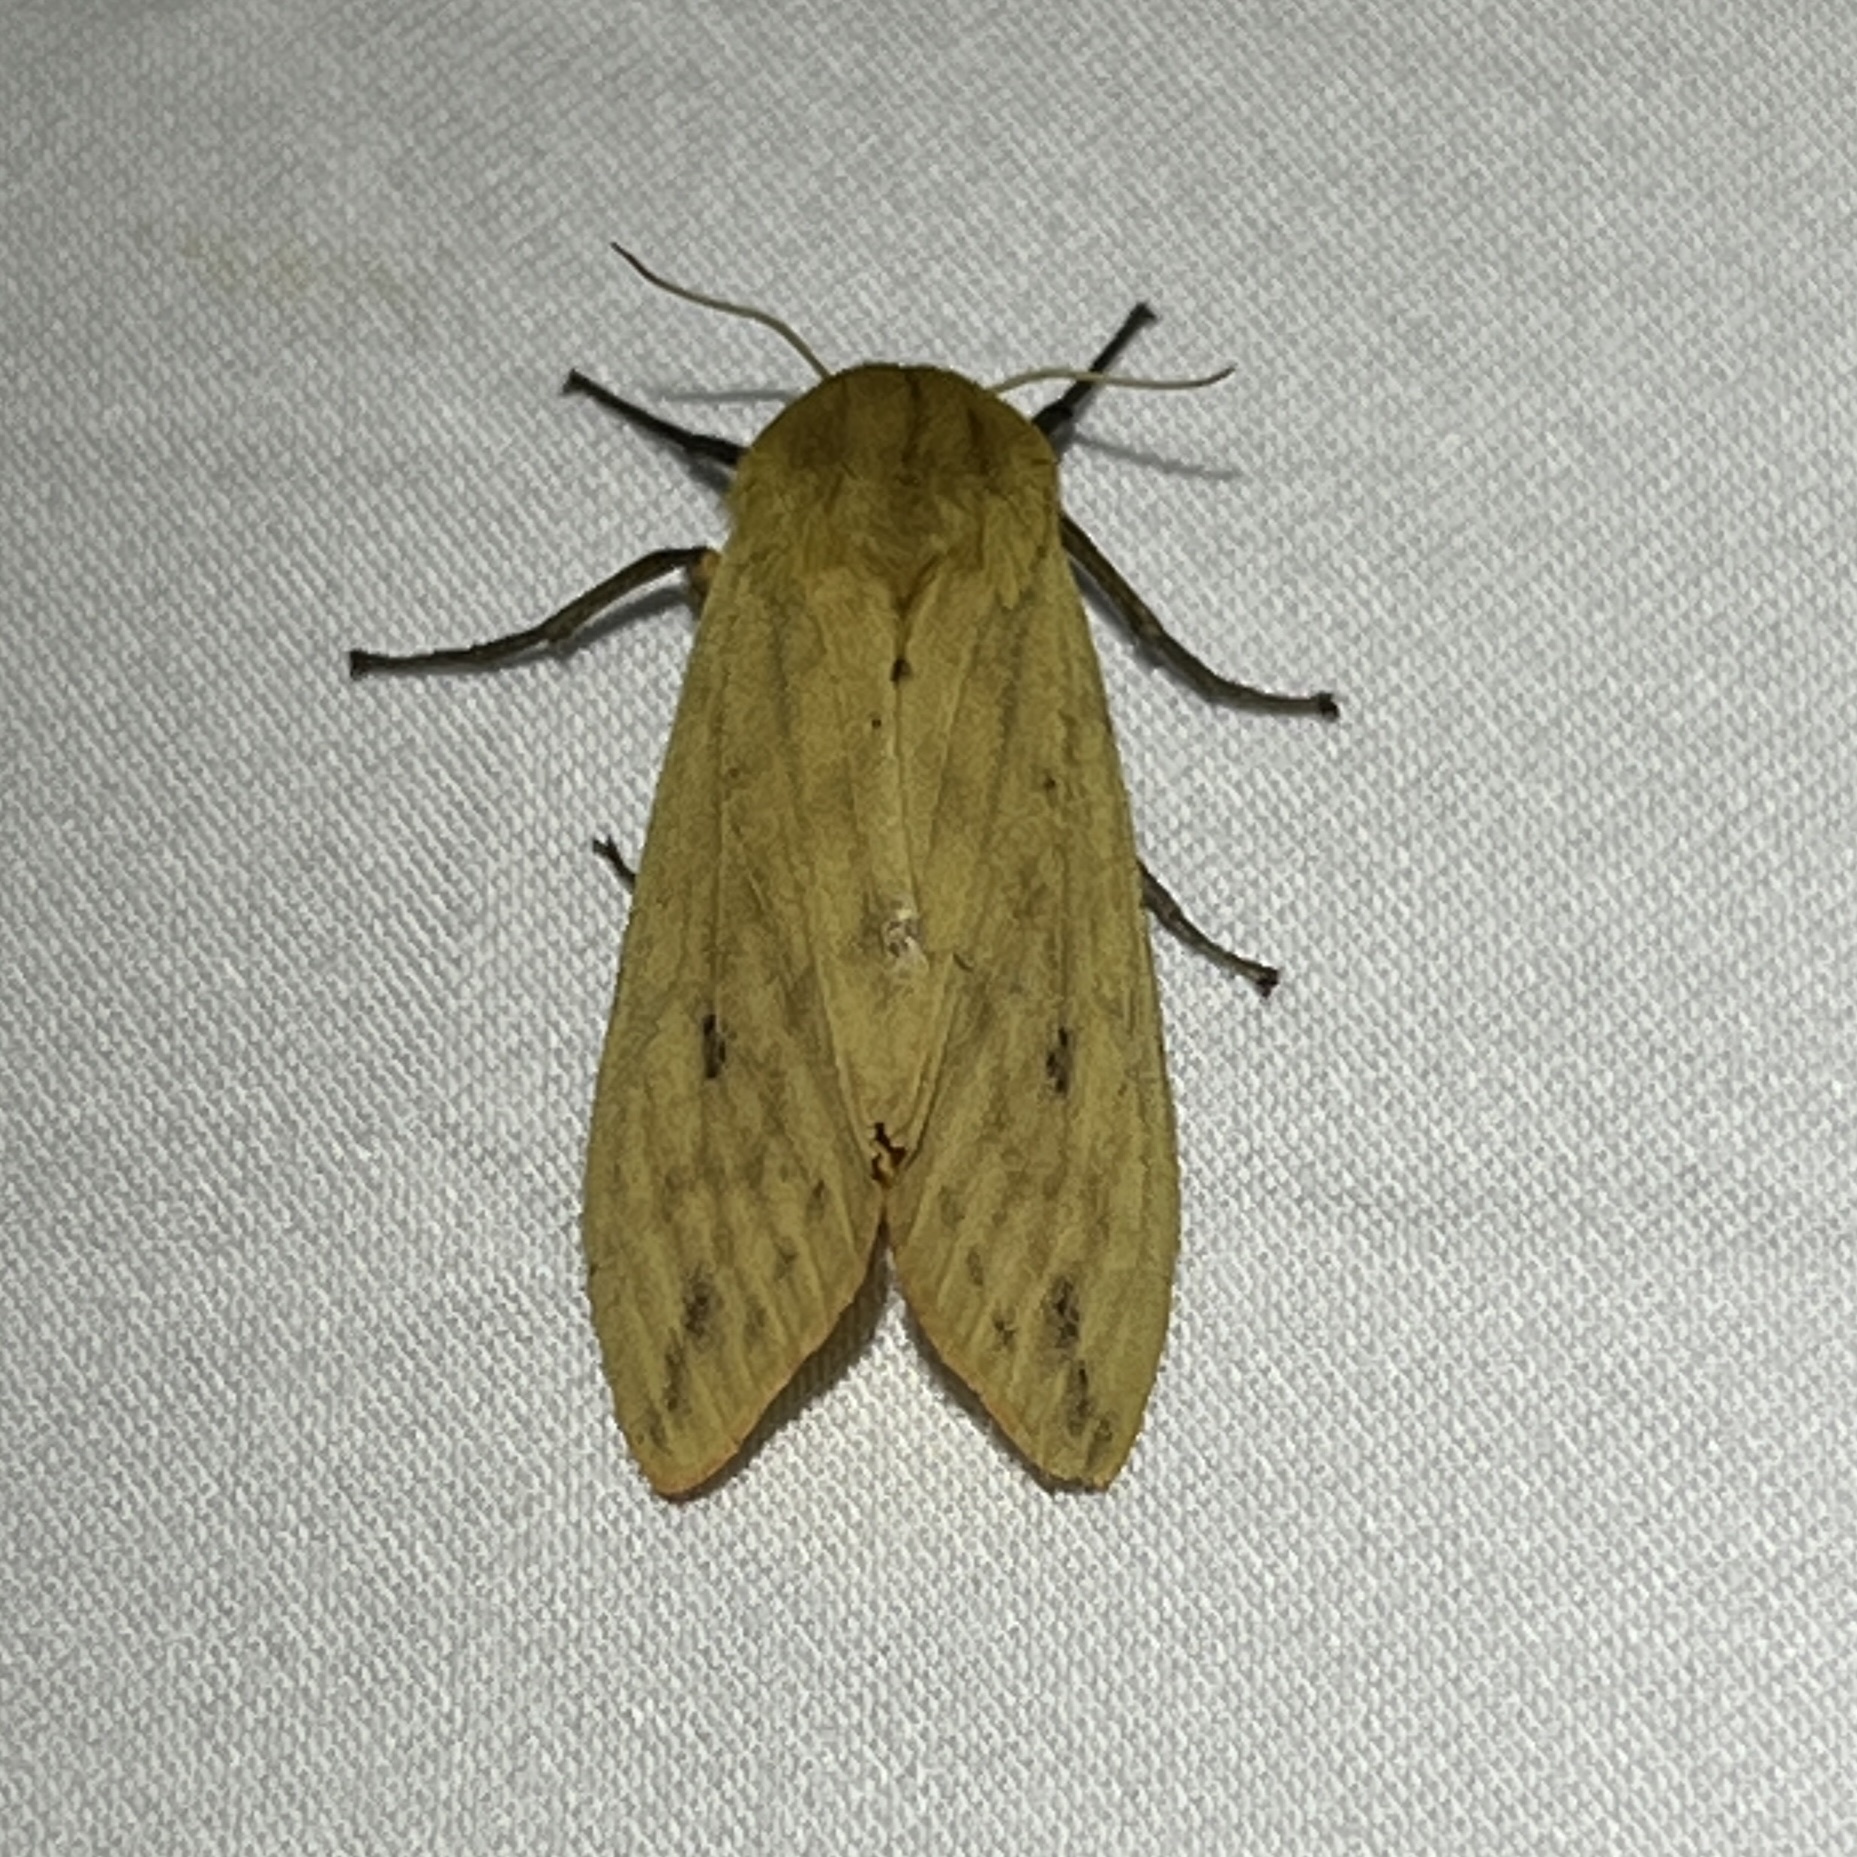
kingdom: Animalia
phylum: Arthropoda
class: Insecta
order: Lepidoptera
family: Erebidae
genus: Pyrrharctia
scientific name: Pyrrharctia isabella
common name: Isabella tiger moth
